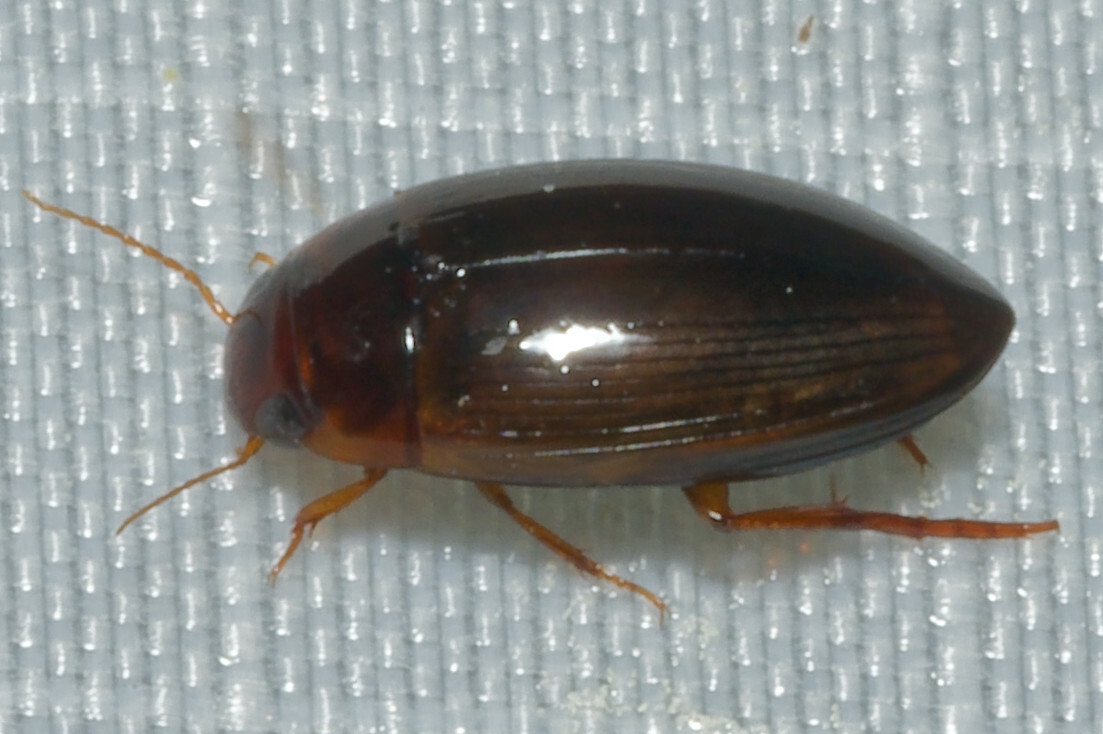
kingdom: Animalia
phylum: Arthropoda
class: Insecta
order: Coleoptera
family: Dytiscidae
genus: Copelatus
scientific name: Copelatus chevrolati
